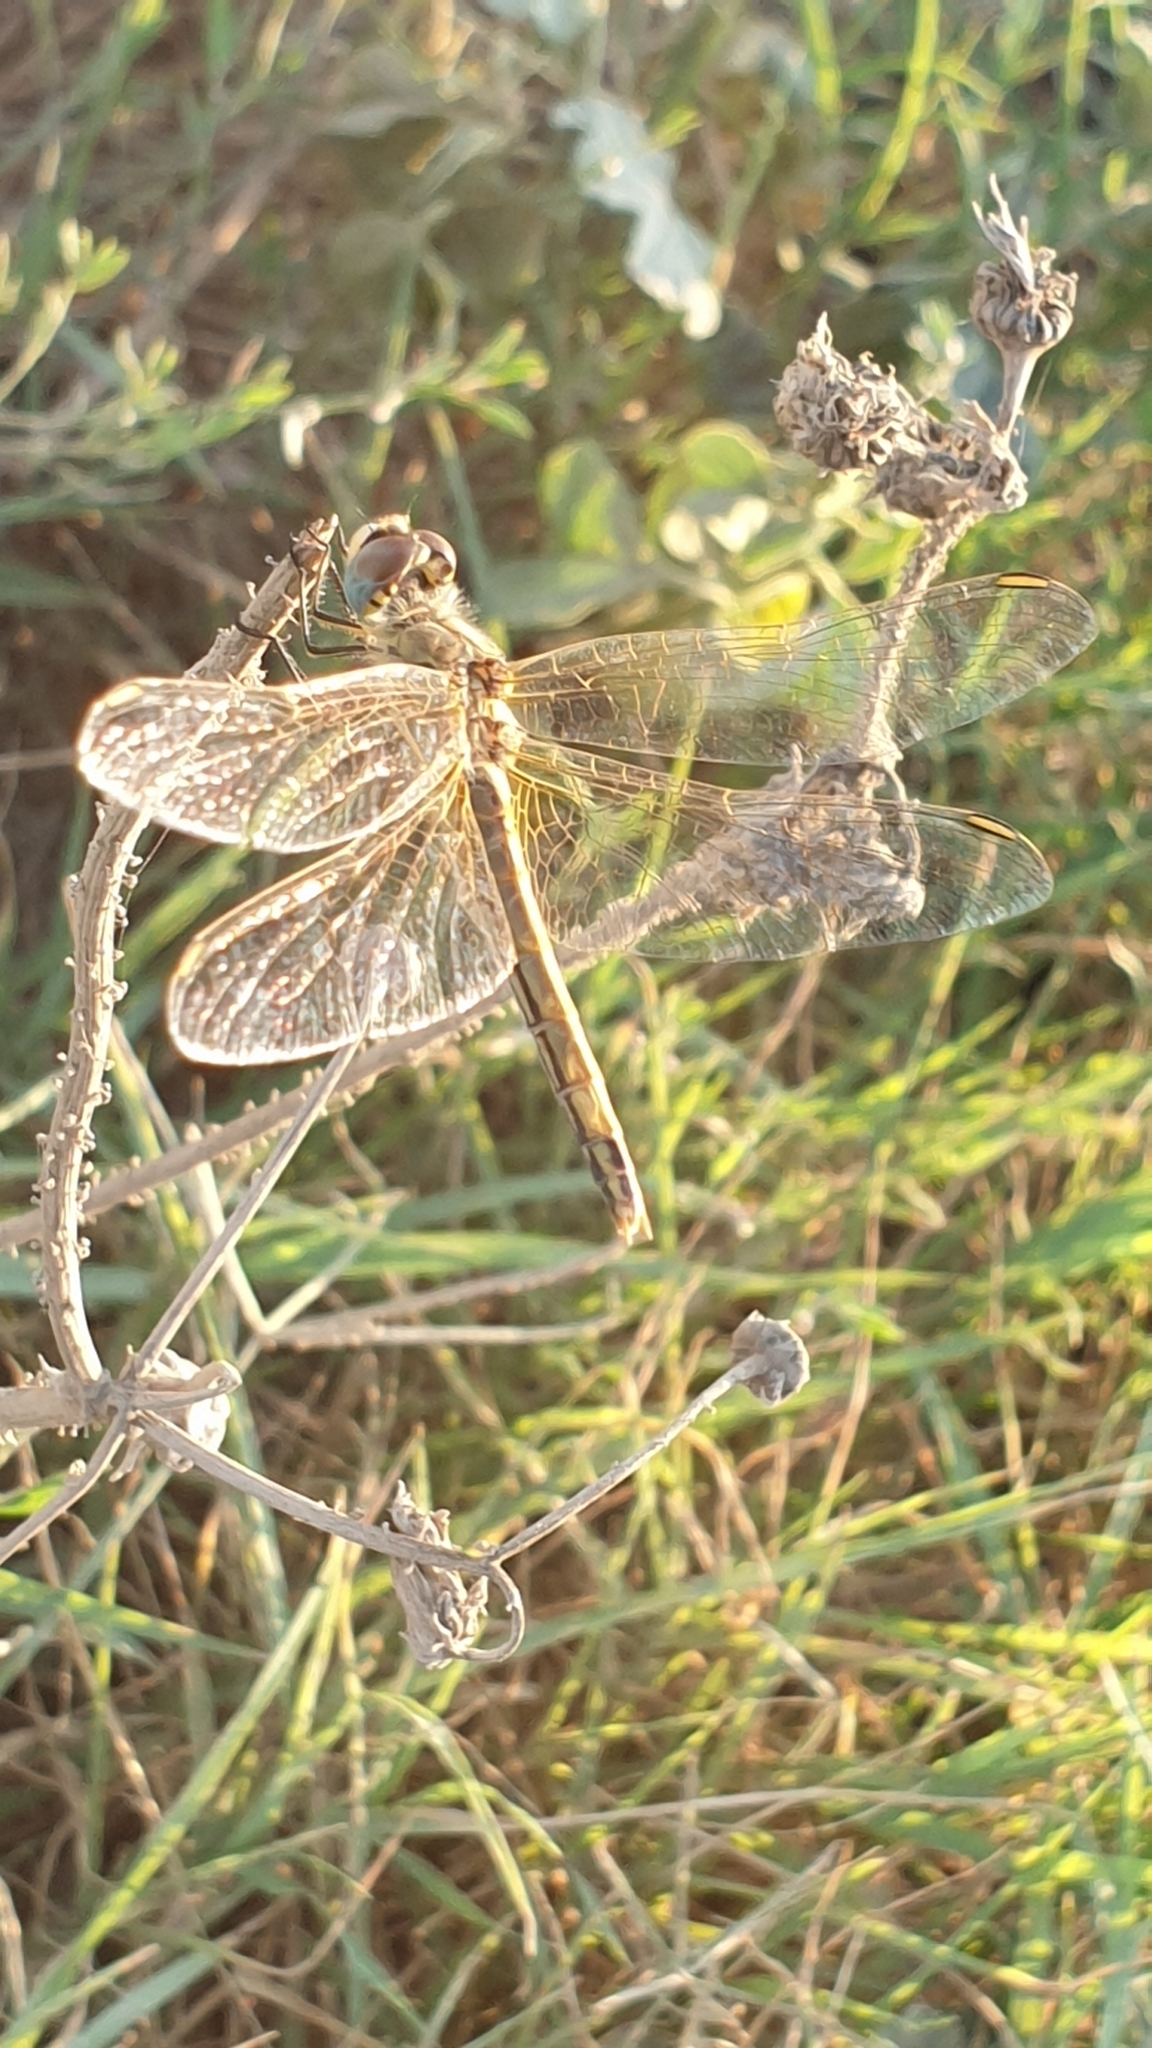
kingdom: Animalia
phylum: Arthropoda
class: Insecta
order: Odonata
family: Libellulidae
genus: Sympetrum
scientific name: Sympetrum fonscolombii
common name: Red-veined darter
